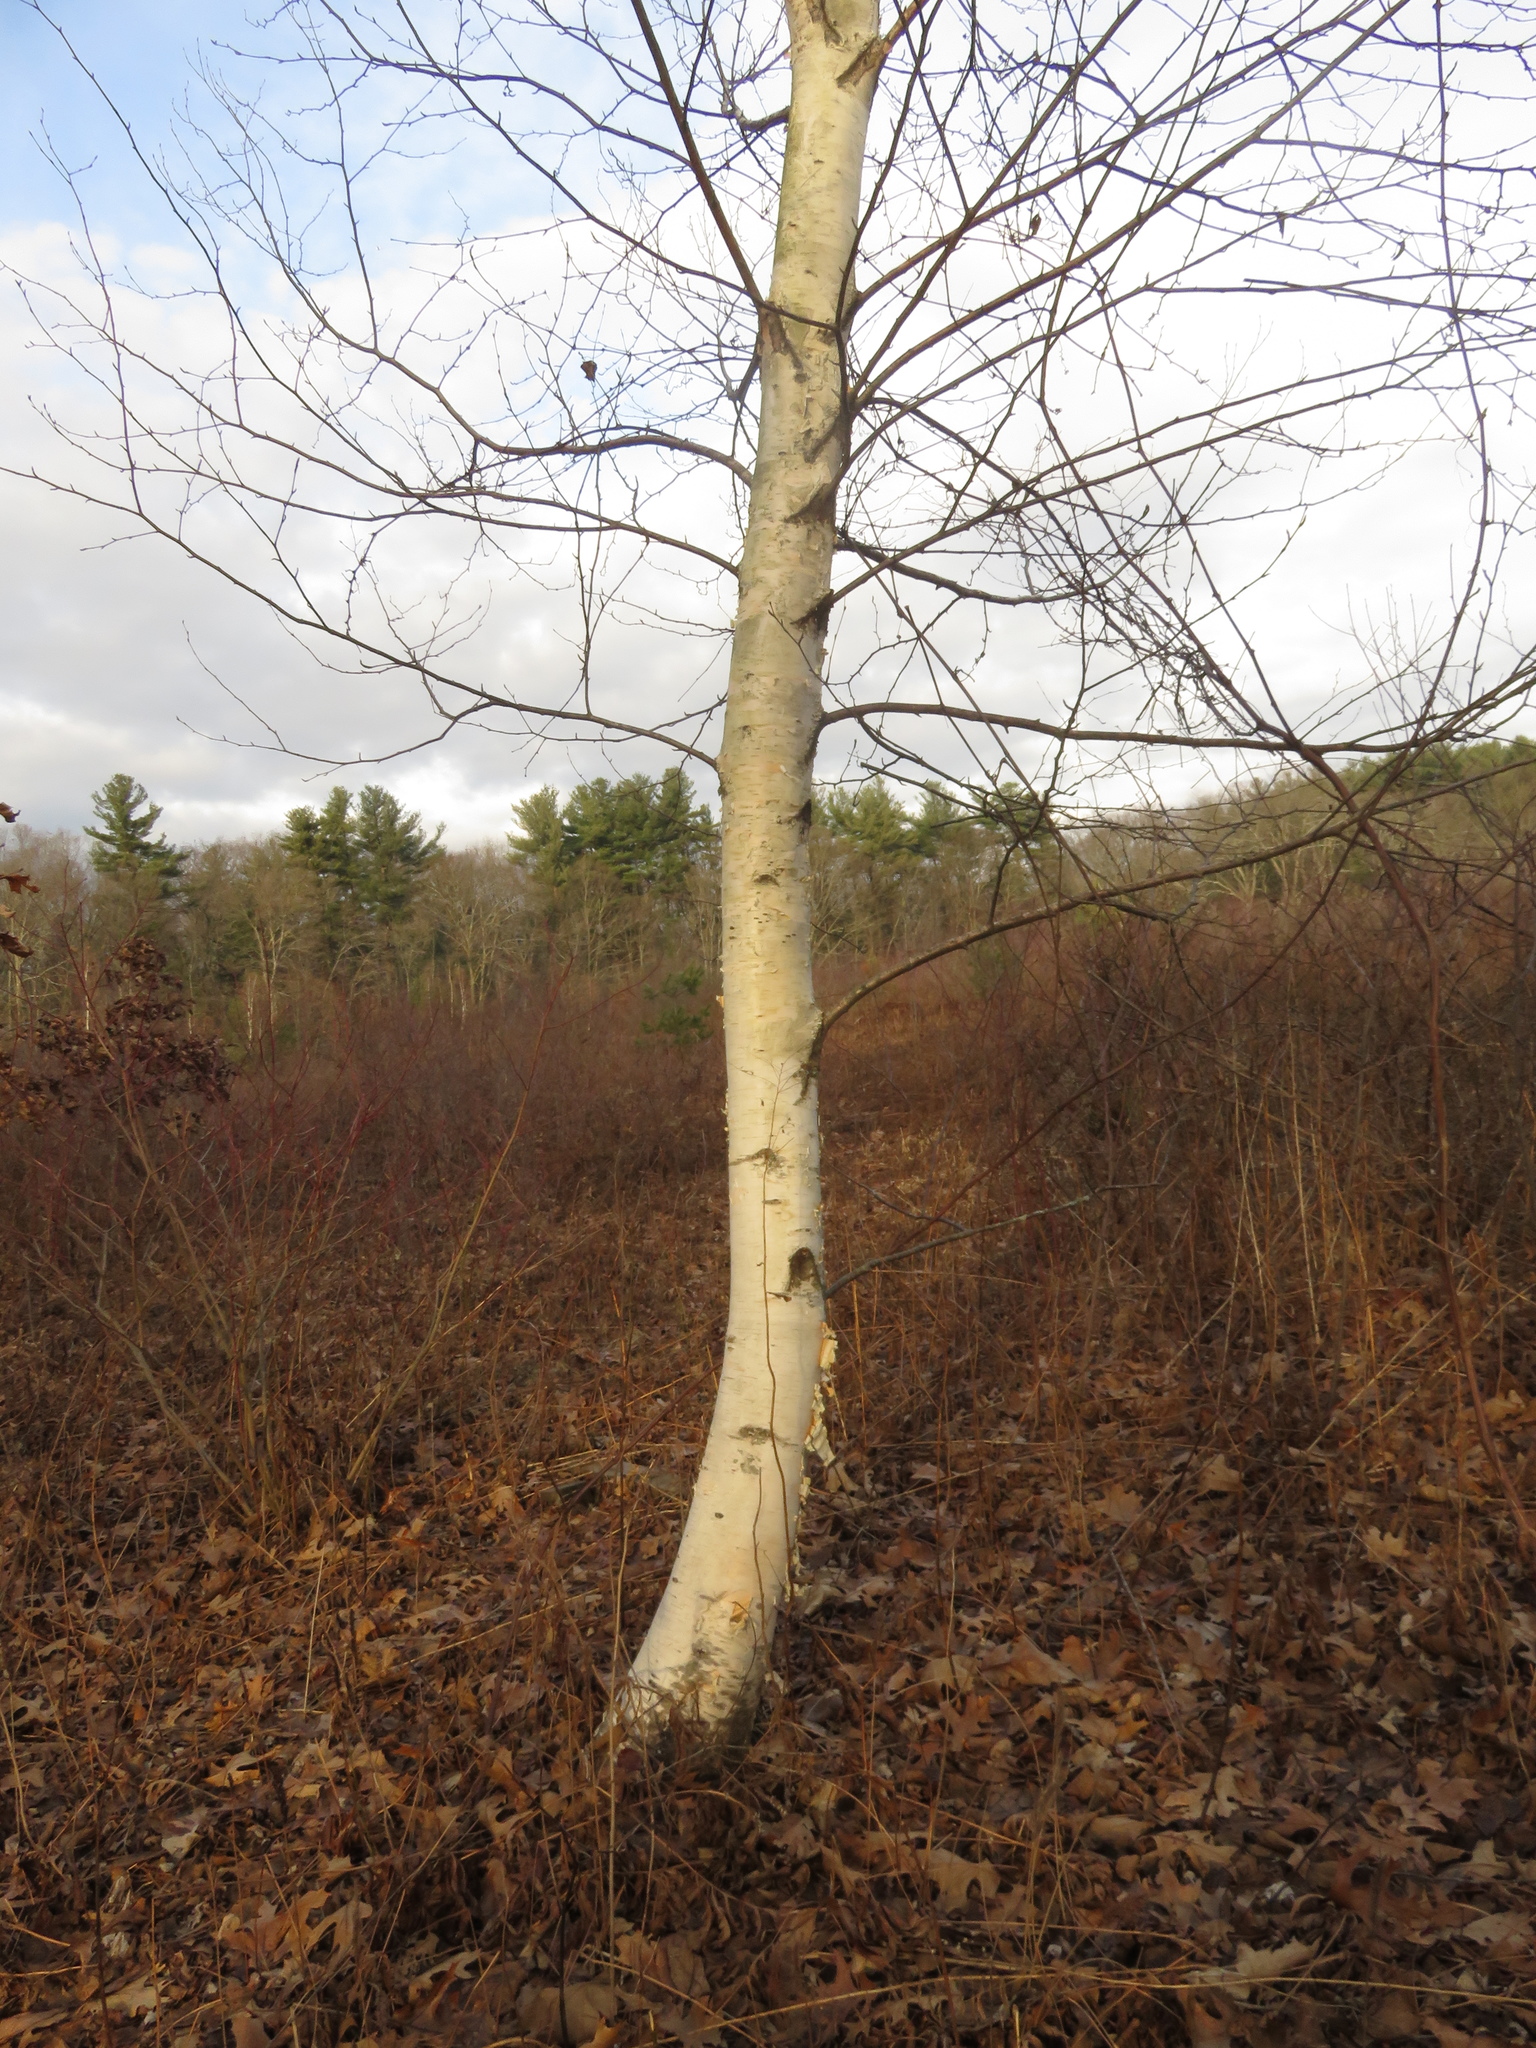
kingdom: Plantae
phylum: Tracheophyta
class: Magnoliopsida
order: Fagales
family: Betulaceae
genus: Betula
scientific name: Betula papyrifera
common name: Paper birch
